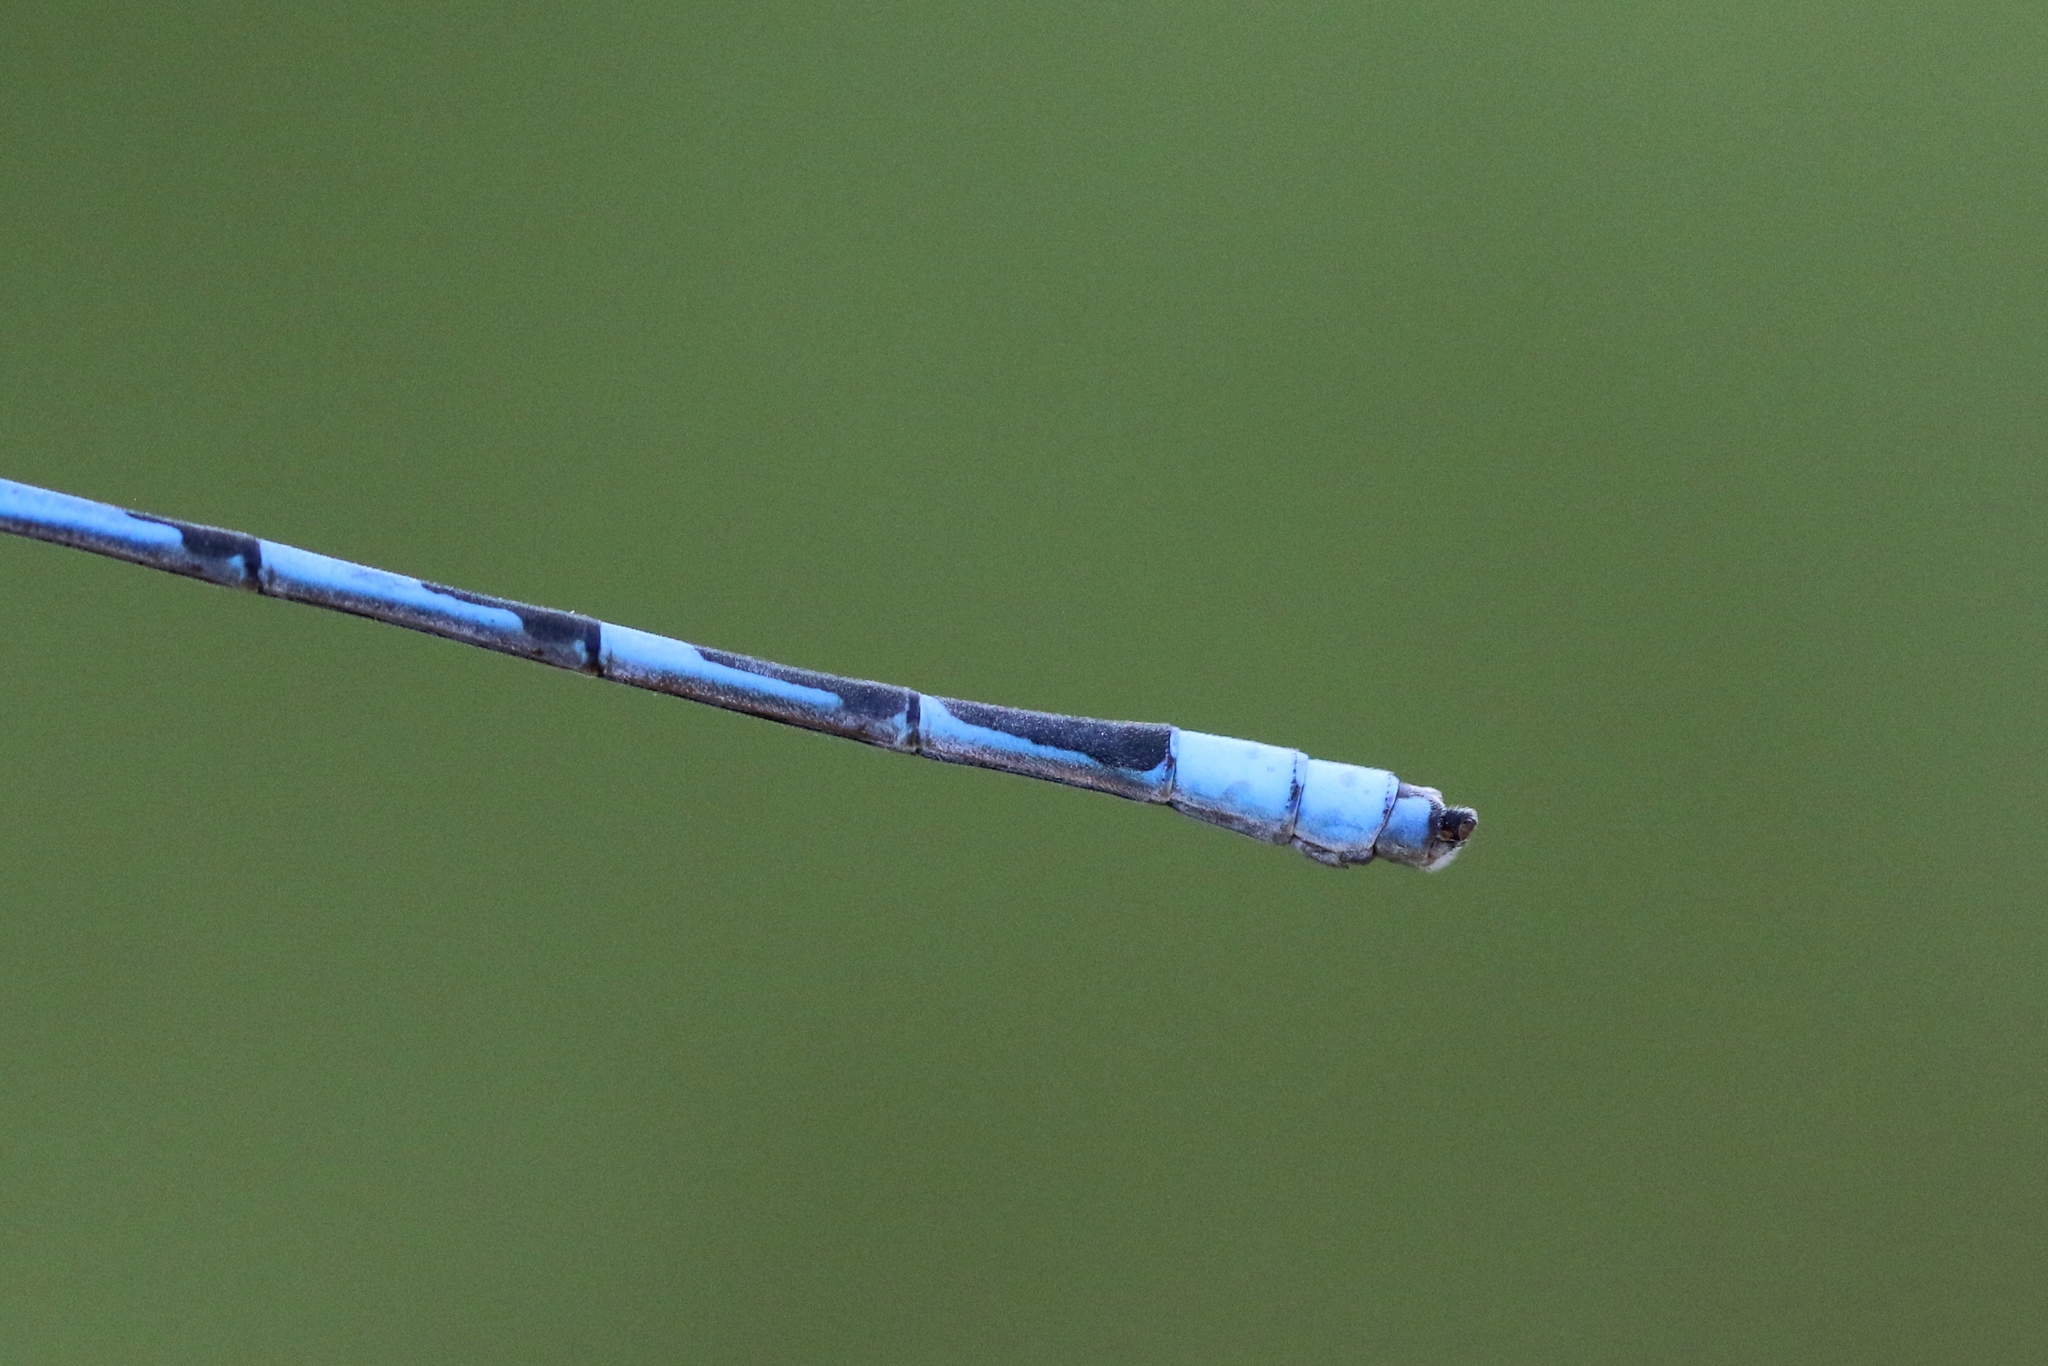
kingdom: Animalia
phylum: Arthropoda
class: Insecta
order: Odonata
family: Coenagrionidae
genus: Enallagma
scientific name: Enallagma civile
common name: Damselfly
